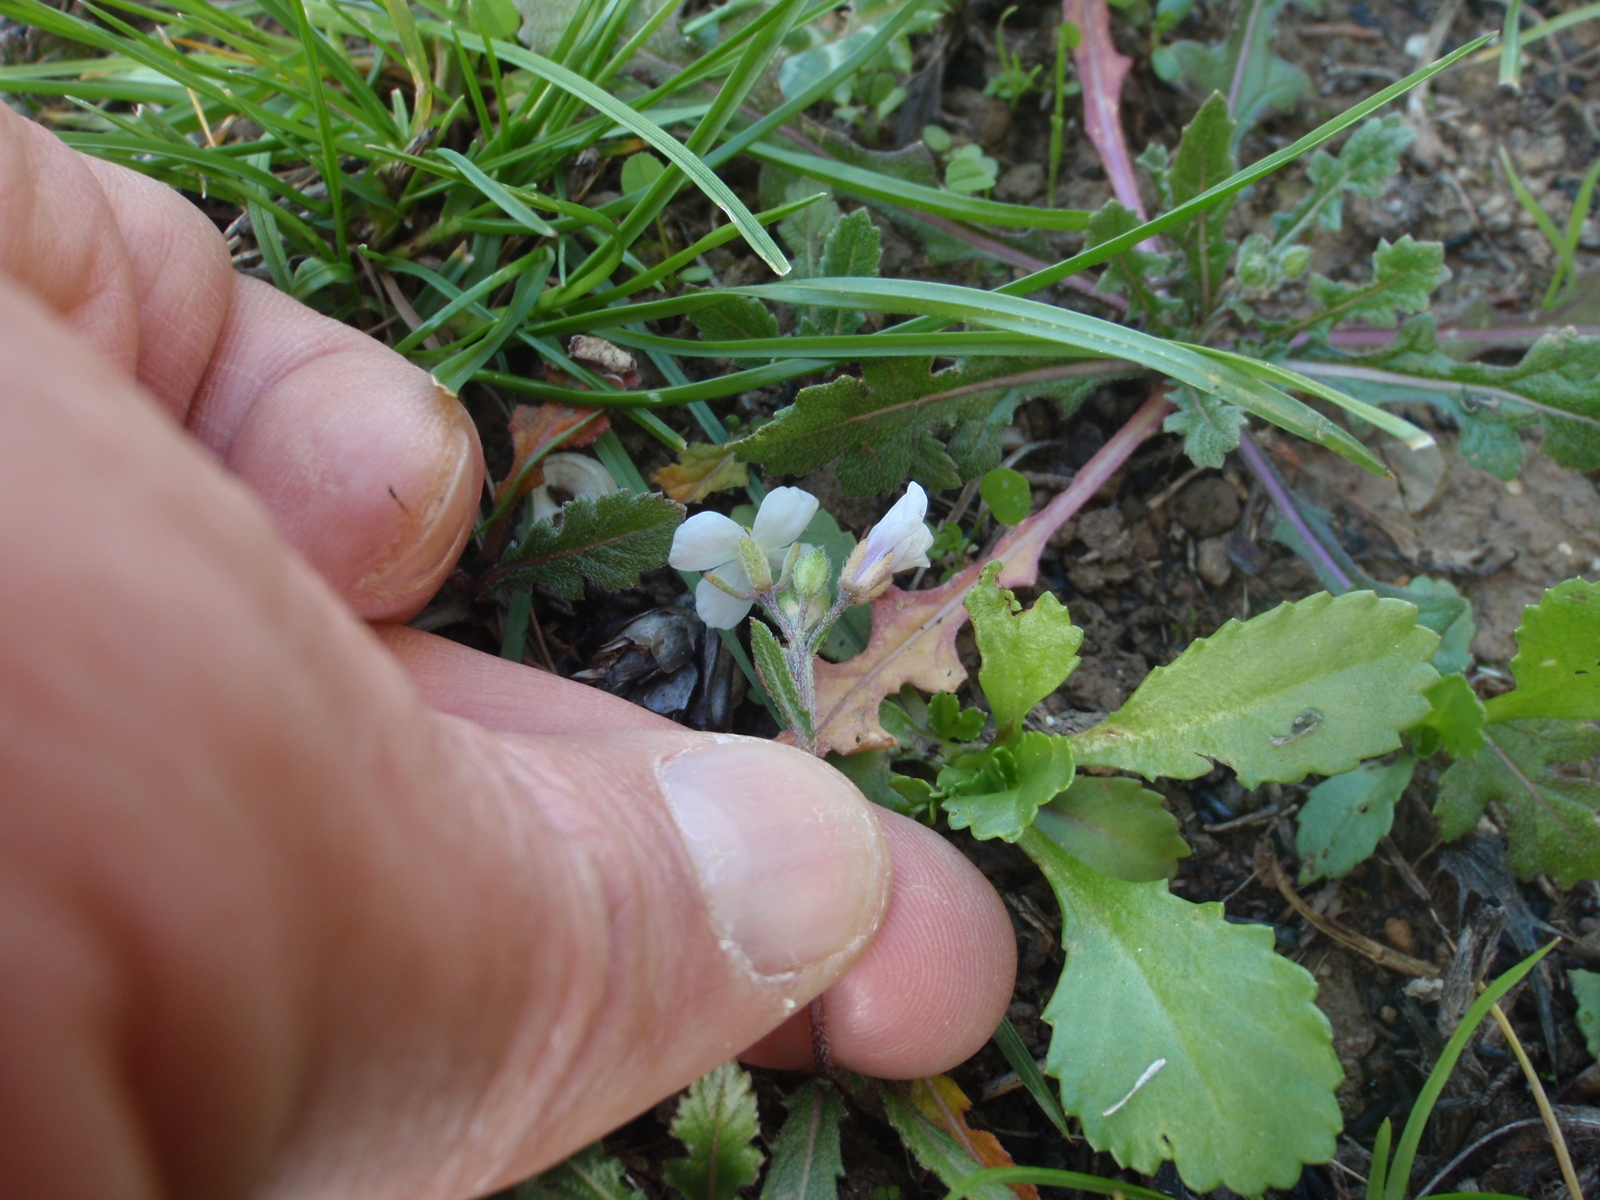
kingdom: Plantae
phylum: Tracheophyta
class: Magnoliopsida
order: Brassicales
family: Brassicaceae
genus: Diplotaxis
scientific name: Diplotaxis erucoides
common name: White rocket
